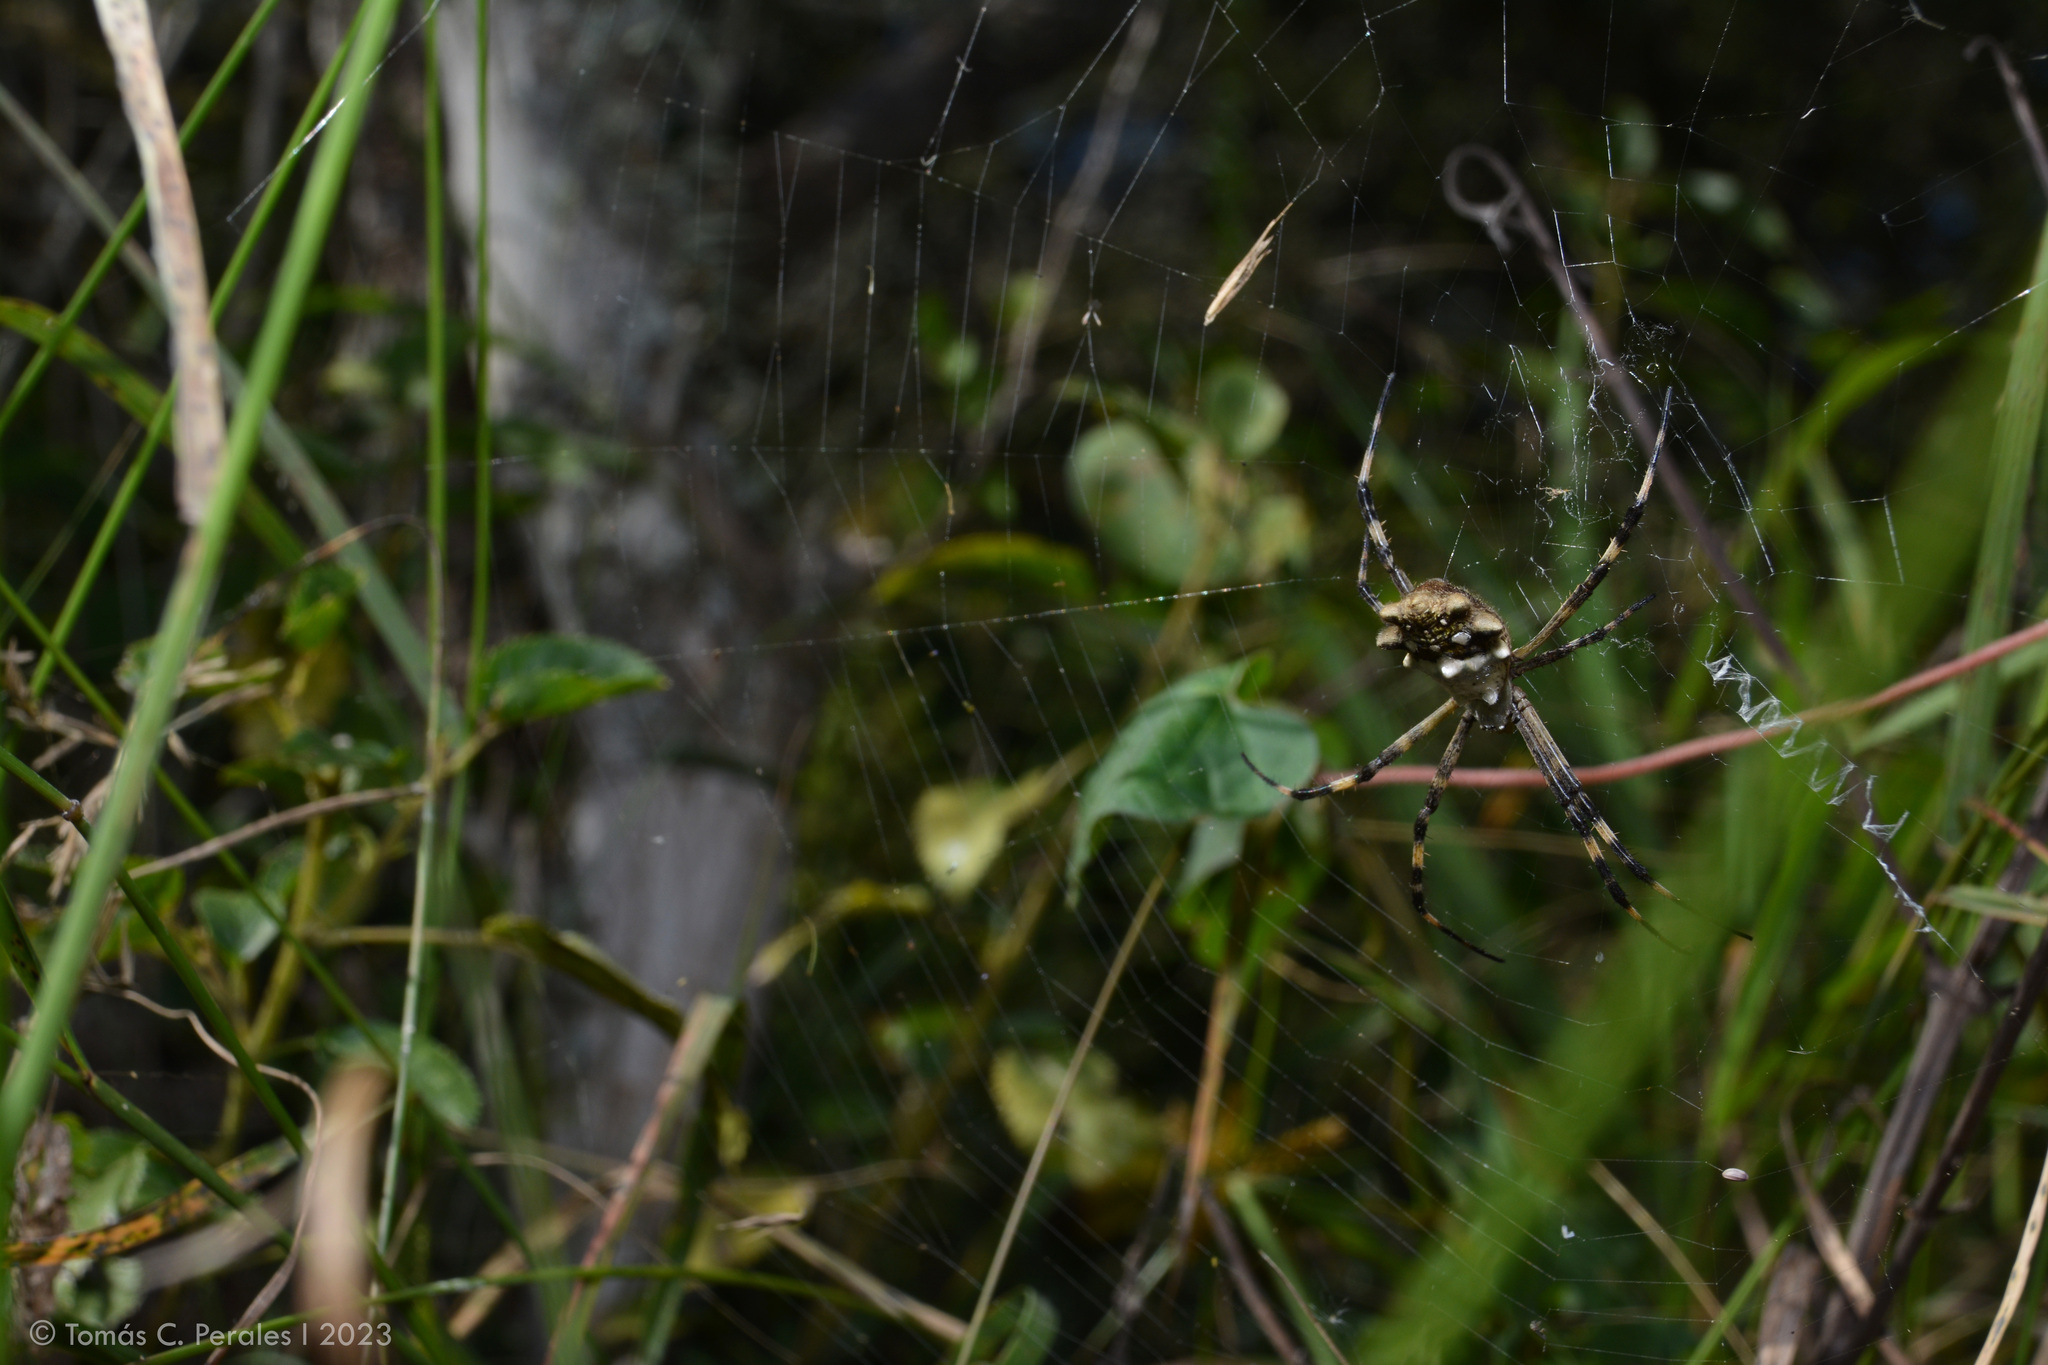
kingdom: Animalia
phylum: Arthropoda
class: Arachnida
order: Araneae
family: Araneidae
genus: Argiope
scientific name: Argiope argentata
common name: Orb weavers
